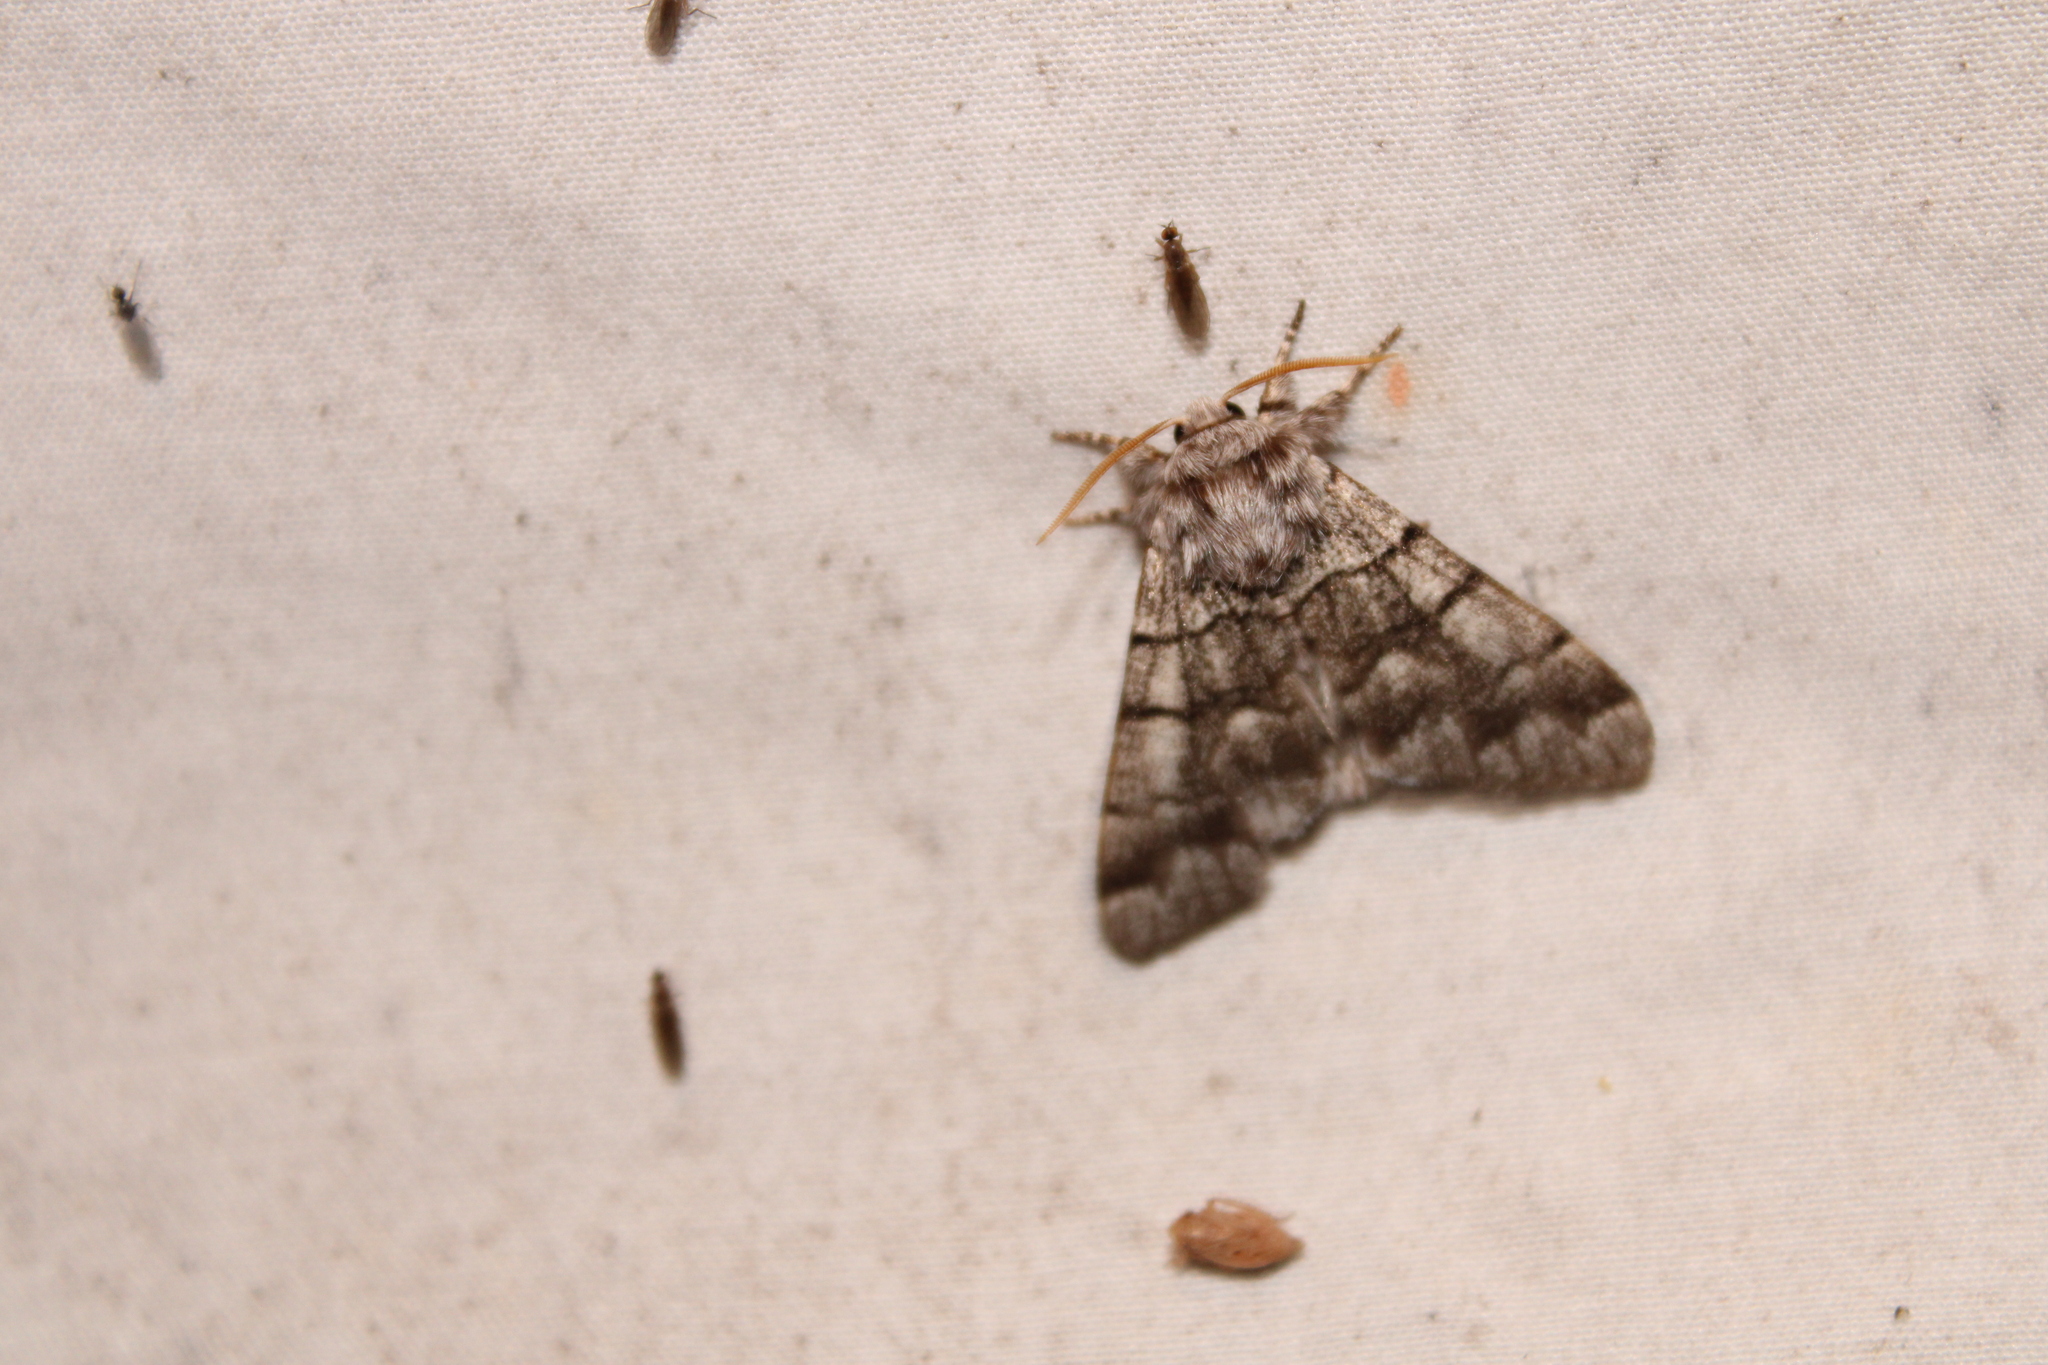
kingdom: Animalia
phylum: Arthropoda
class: Insecta
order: Lepidoptera
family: Noctuidae
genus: Panthea
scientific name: Panthea furcilla
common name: Eastern panthea moth
